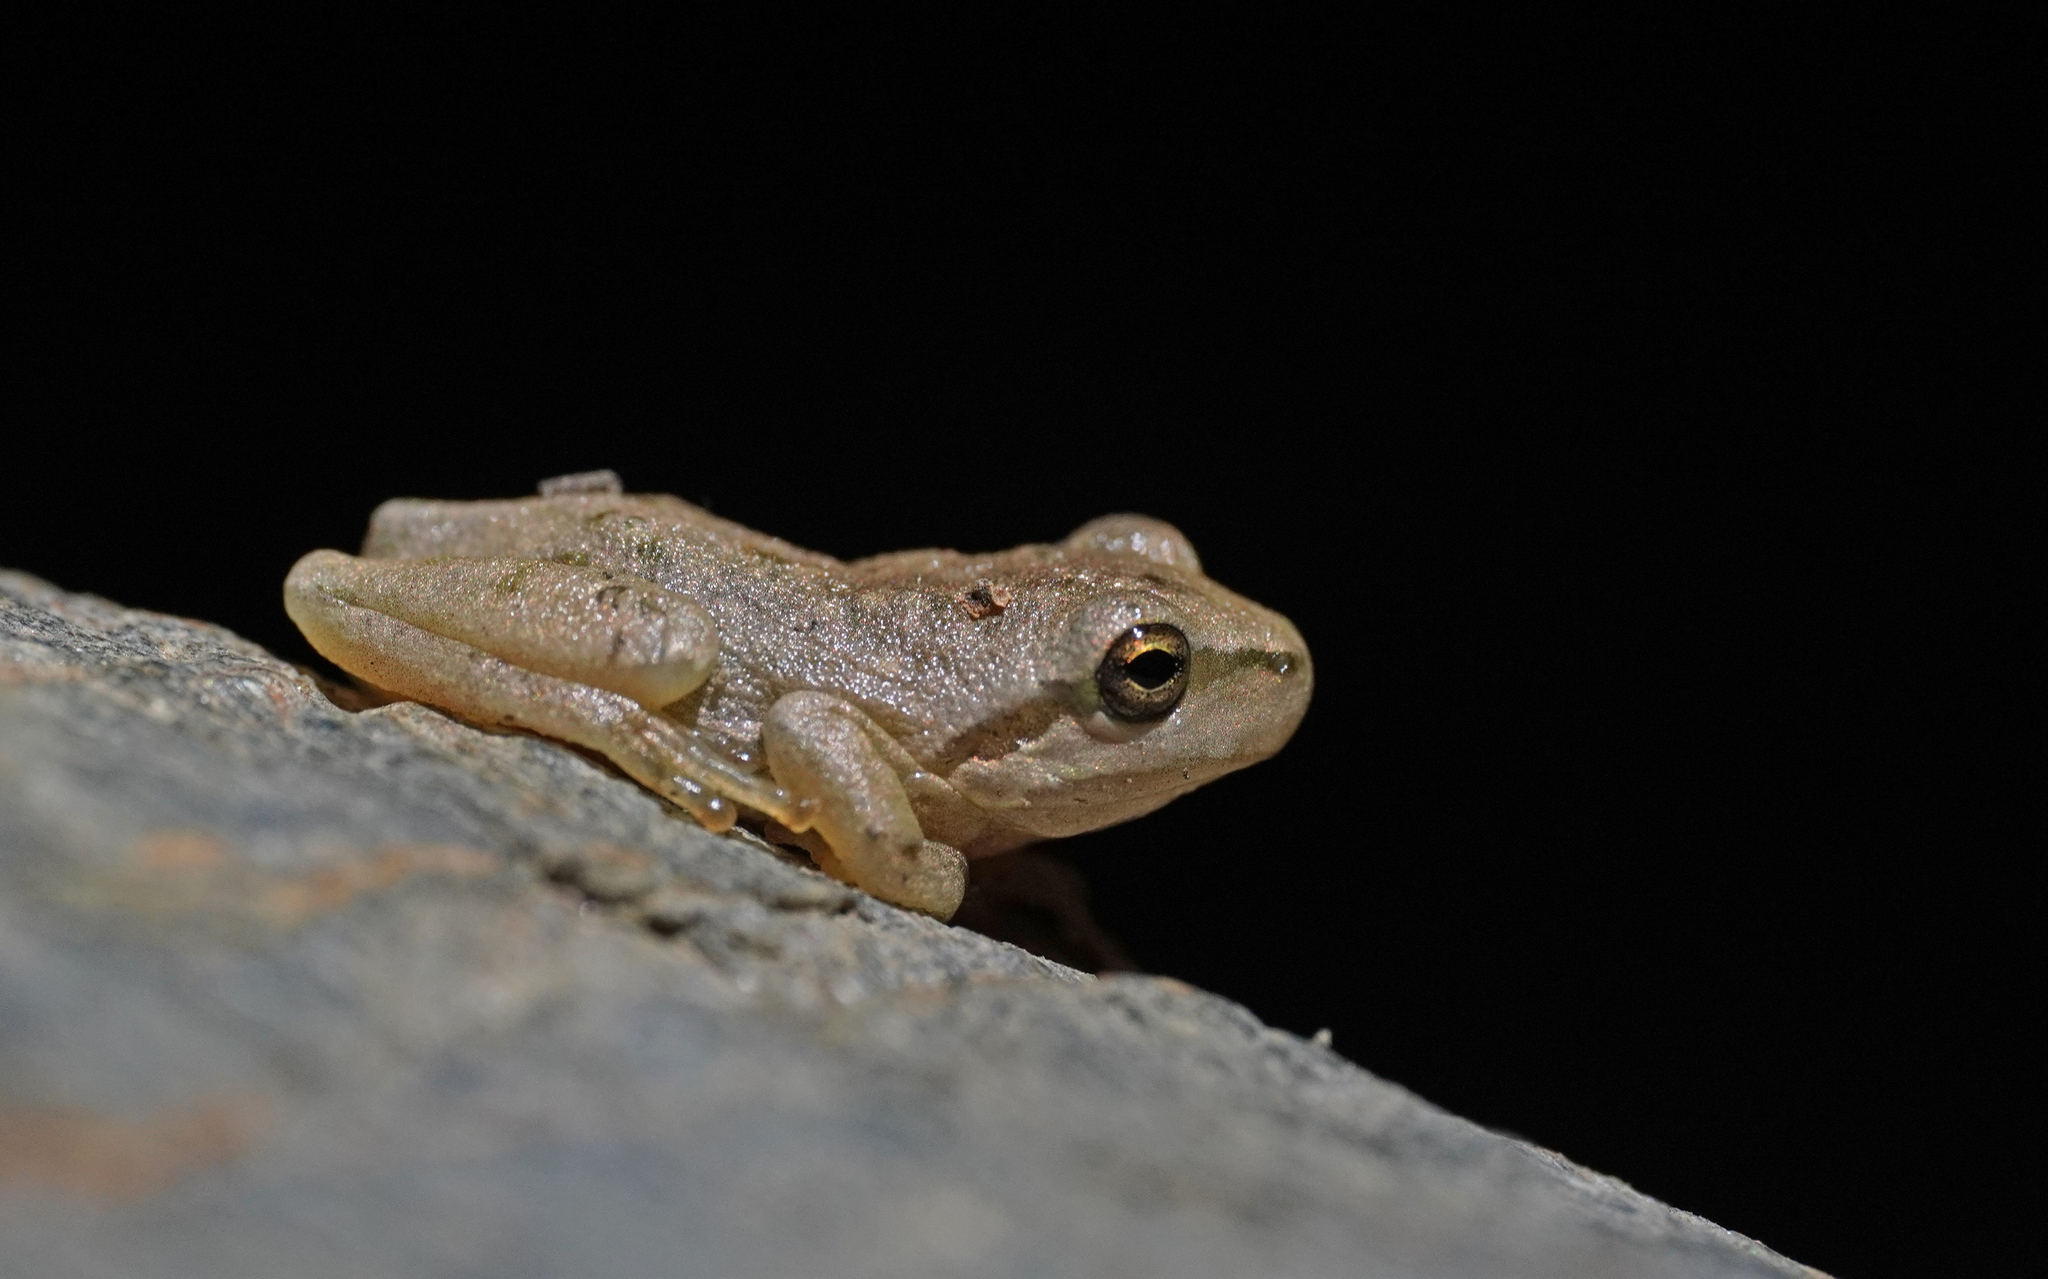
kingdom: Animalia
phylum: Chordata
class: Amphibia
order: Anura
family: Hylidae
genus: Hyla
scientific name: Hyla sarda
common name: Sardinian tree frog
